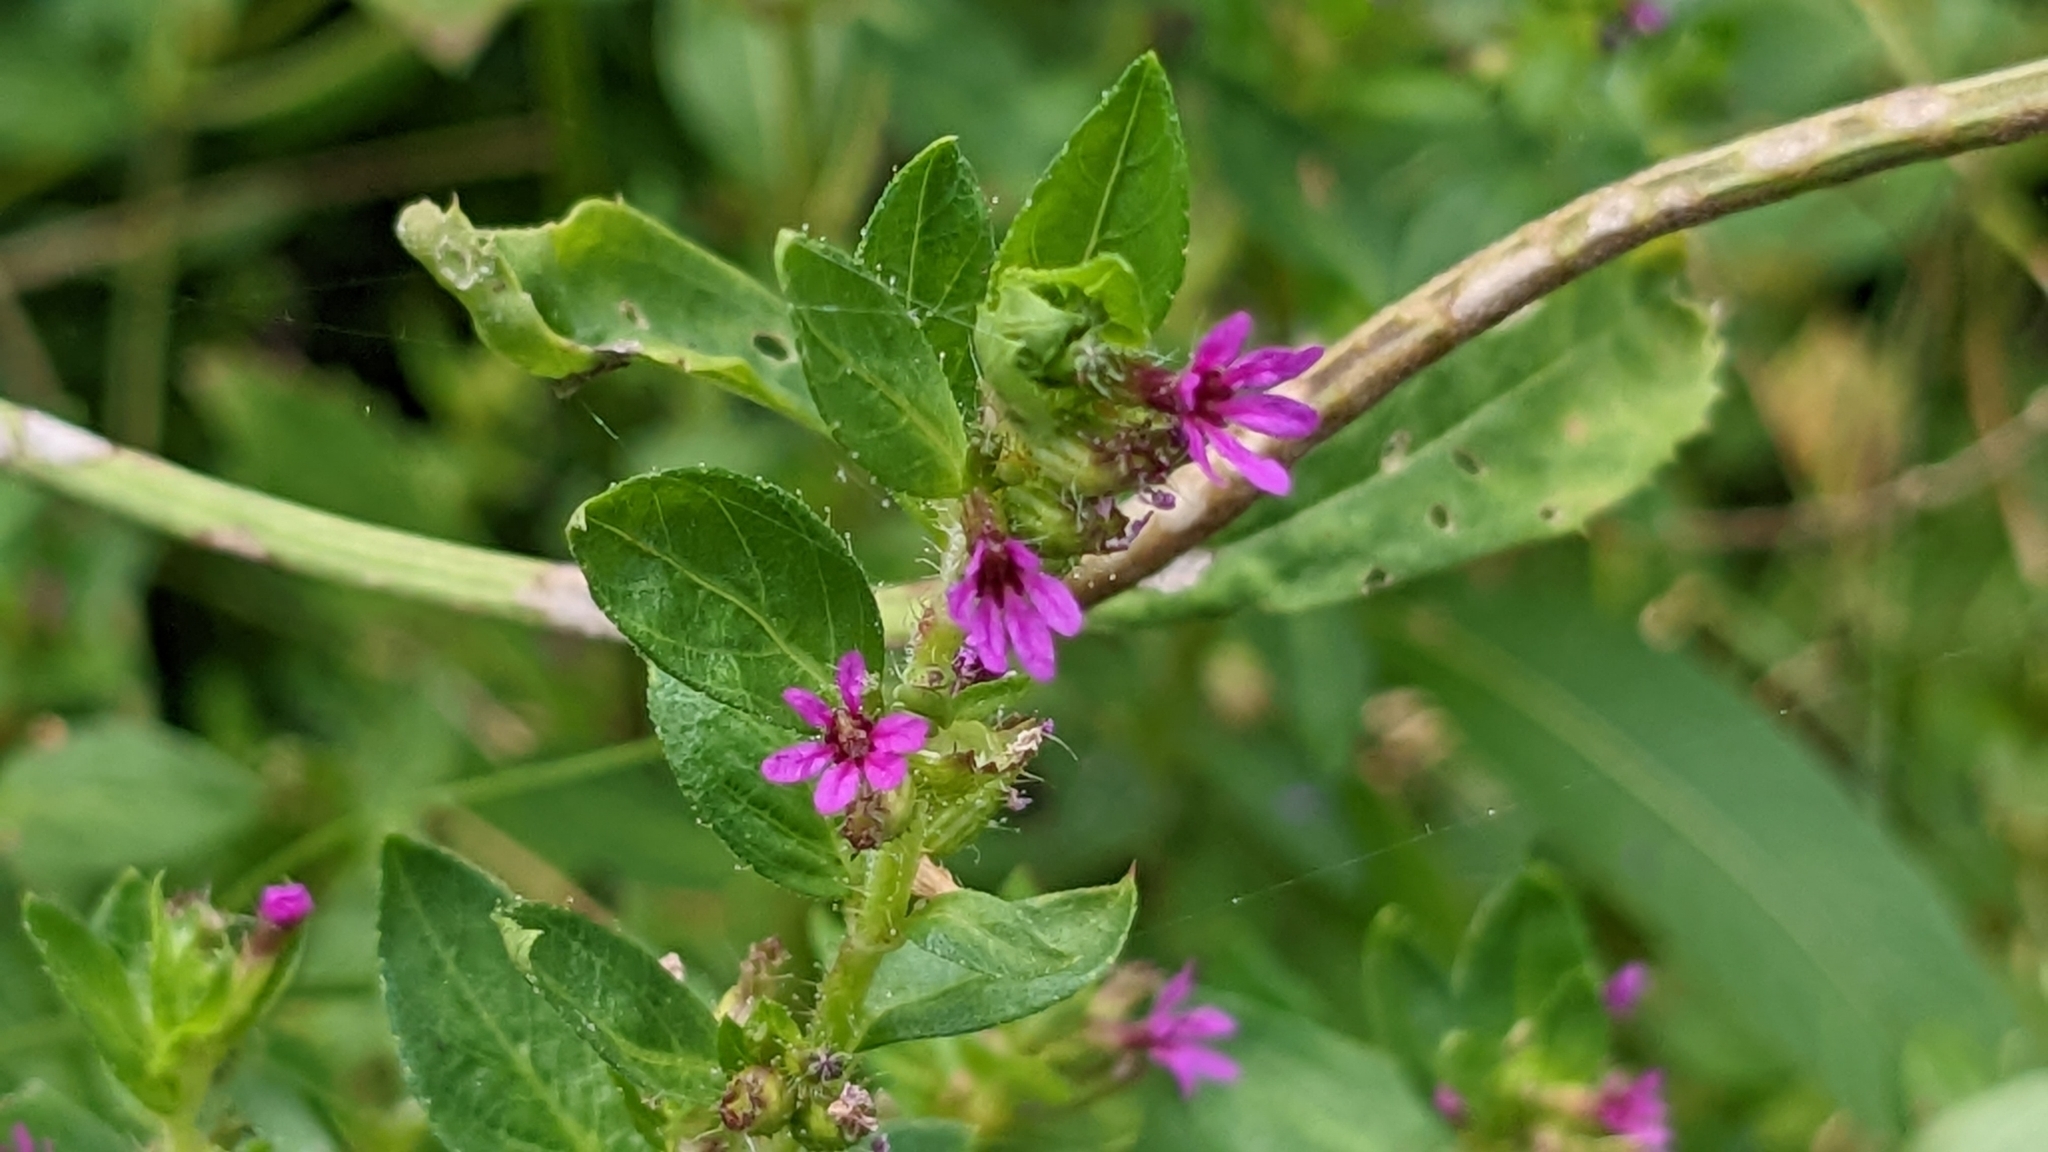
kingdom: Plantae
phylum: Tracheophyta
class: Magnoliopsida
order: Myrtales
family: Lythraceae
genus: Cuphea
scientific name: Cuphea carthagenensis
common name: Colombian waxweed
